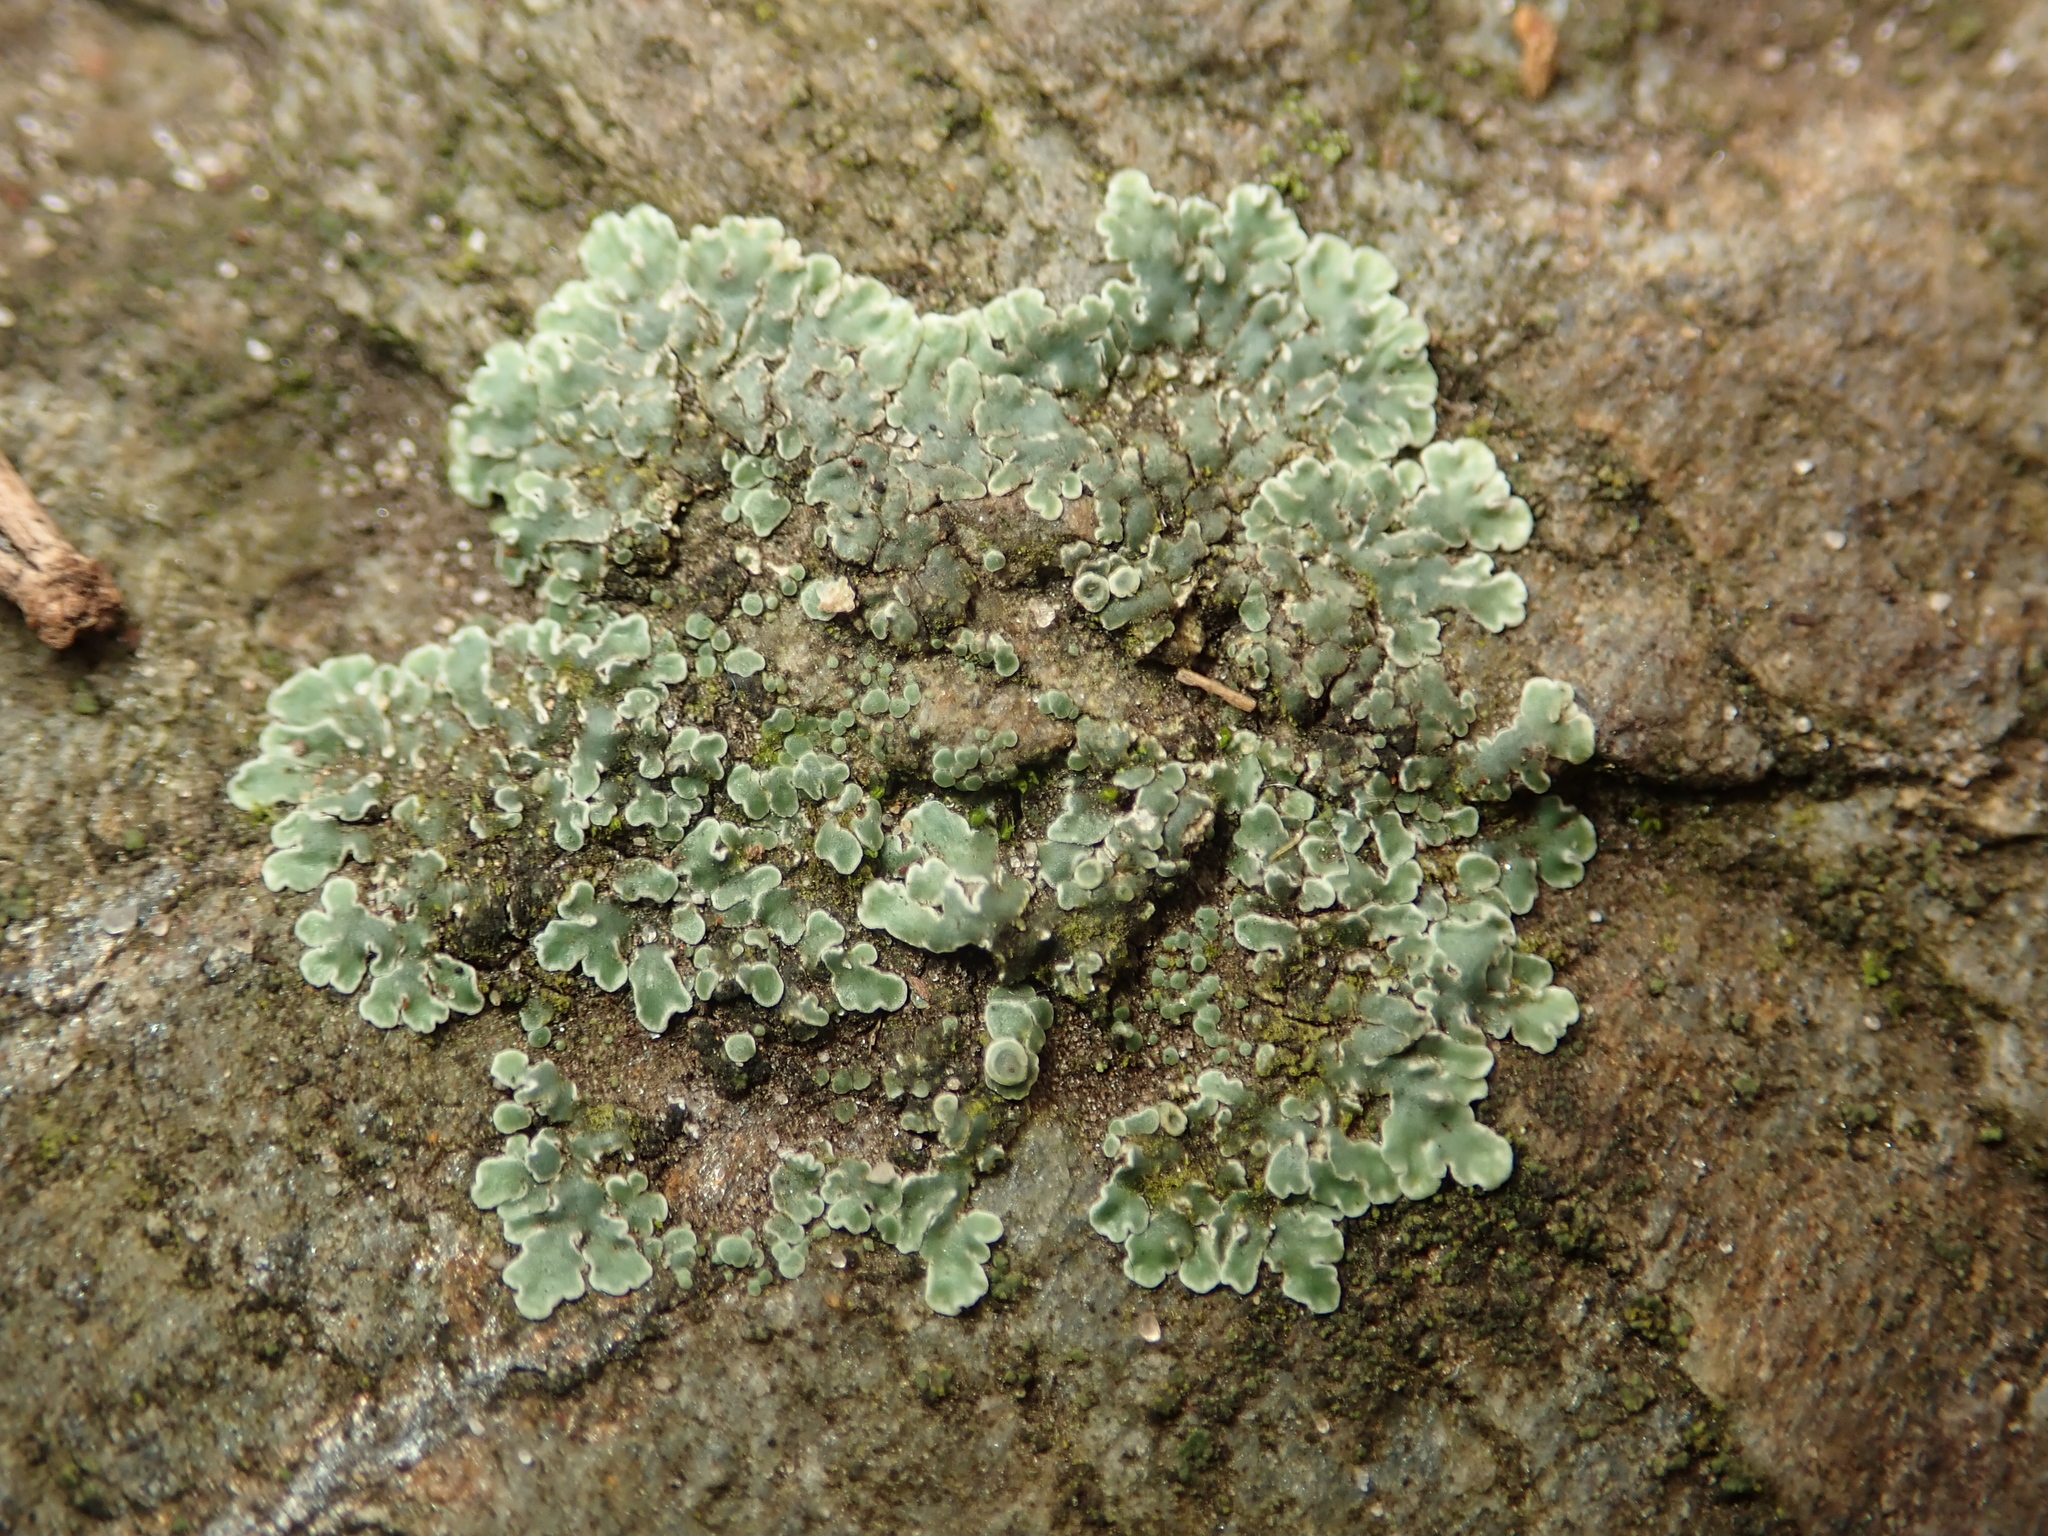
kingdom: Fungi
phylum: Ascomycota
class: Lecanoromycetes
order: Lecanorales
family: Lecanoraceae
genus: Protoparmeliopsis
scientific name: Protoparmeliopsis muralis
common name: Stonewall rim lichen
